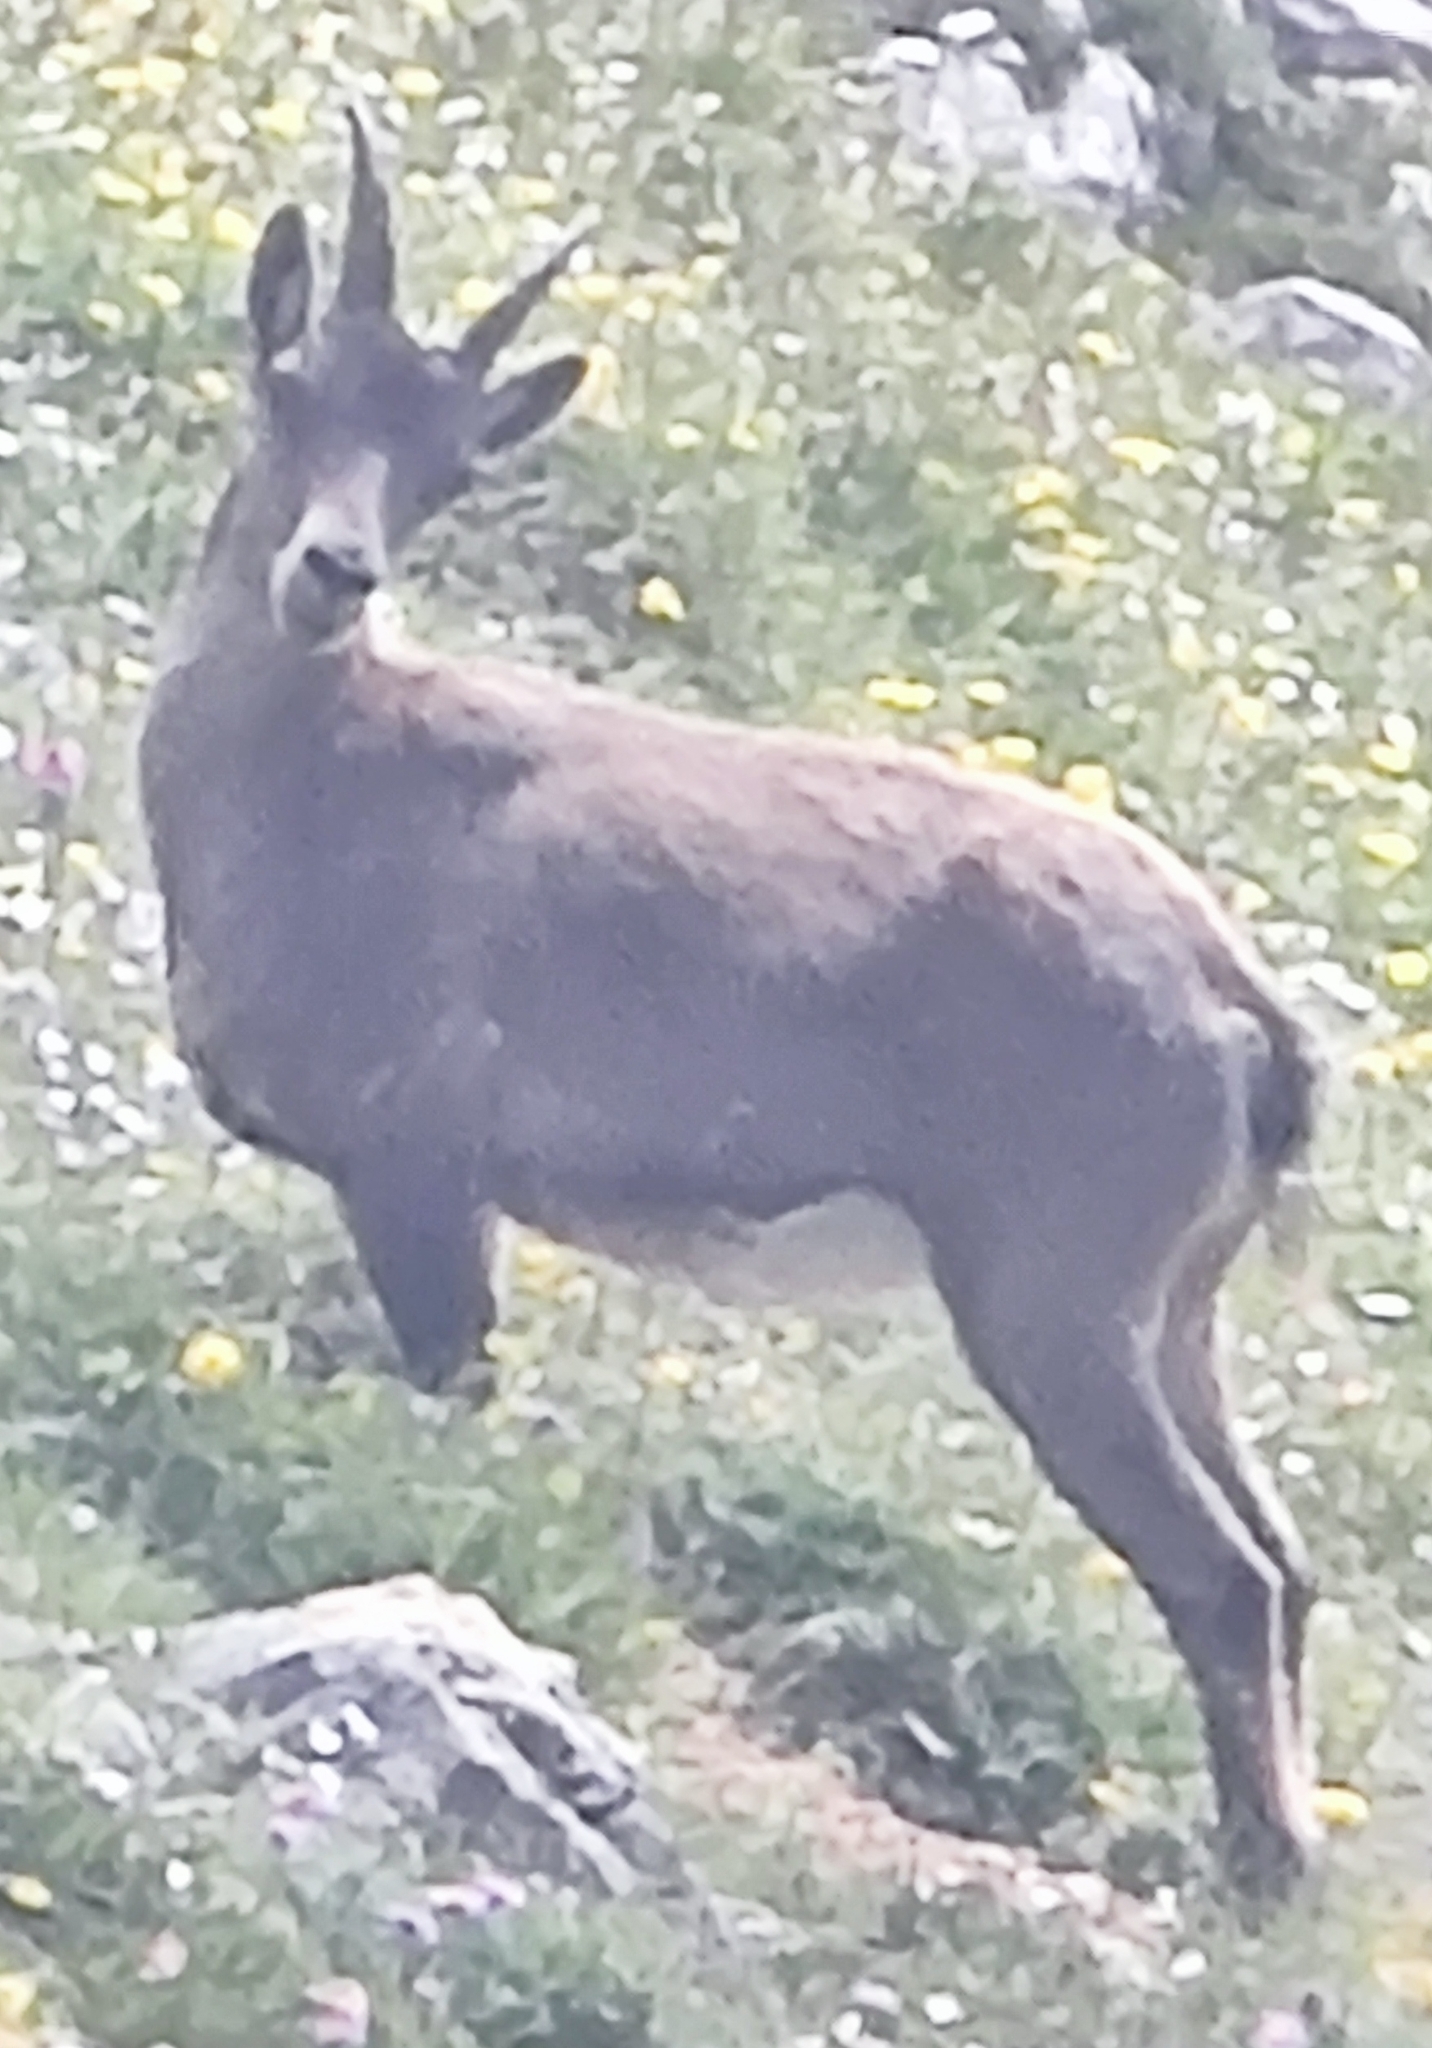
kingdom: Animalia
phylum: Chordata
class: Mammalia
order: Artiodactyla
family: Bovidae
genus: Capra
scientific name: Capra ibex
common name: Alpine ibex
